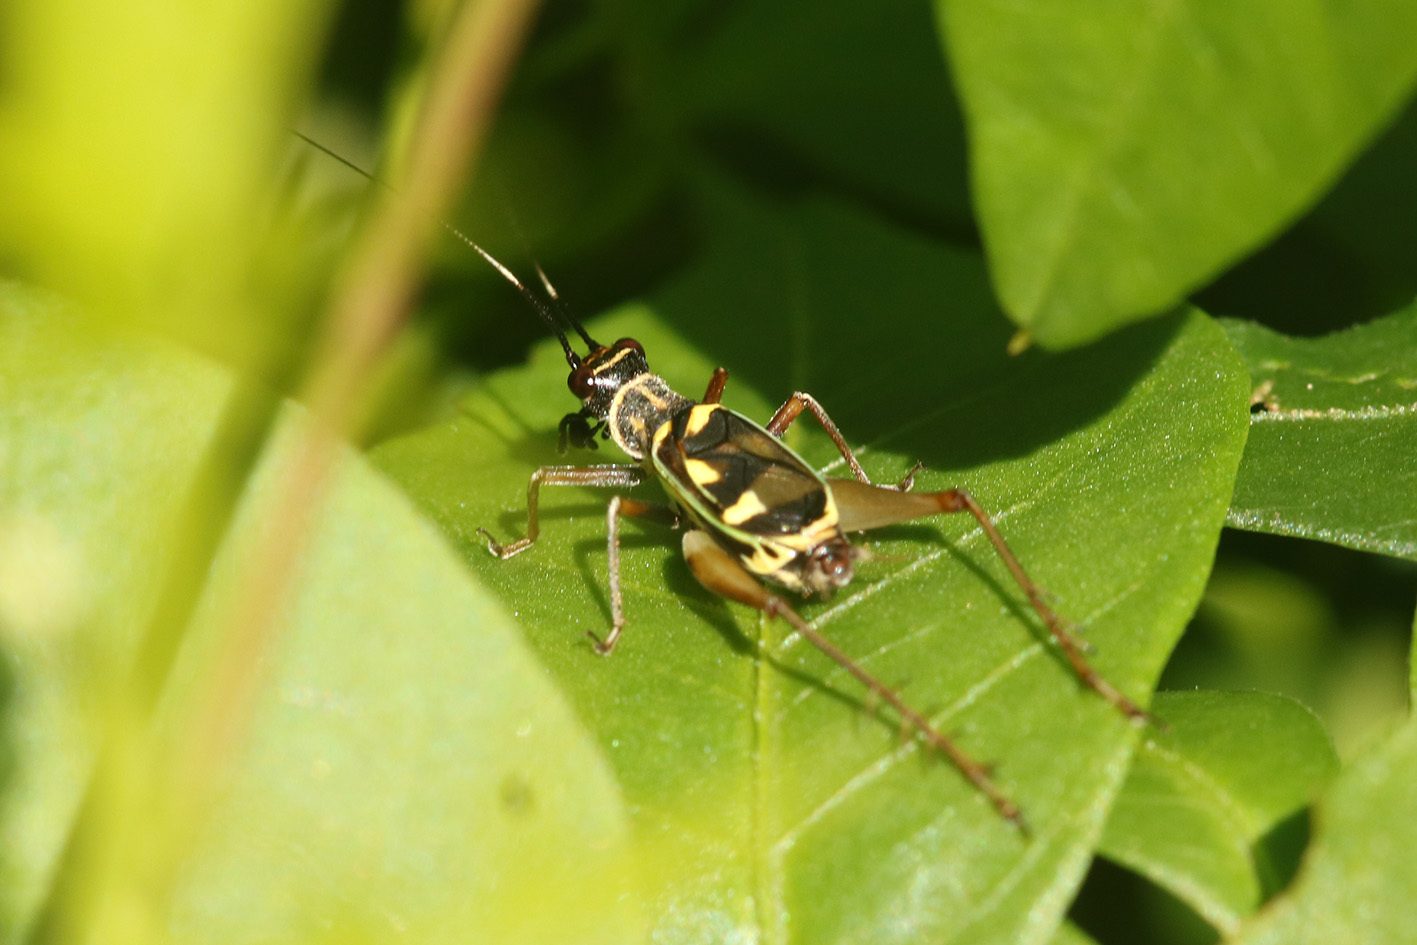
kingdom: Animalia
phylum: Arthropoda
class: Insecta
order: Orthoptera
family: Trigonidiidae
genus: Phylloscyrtus
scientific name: Phylloscyrtus amoenus
